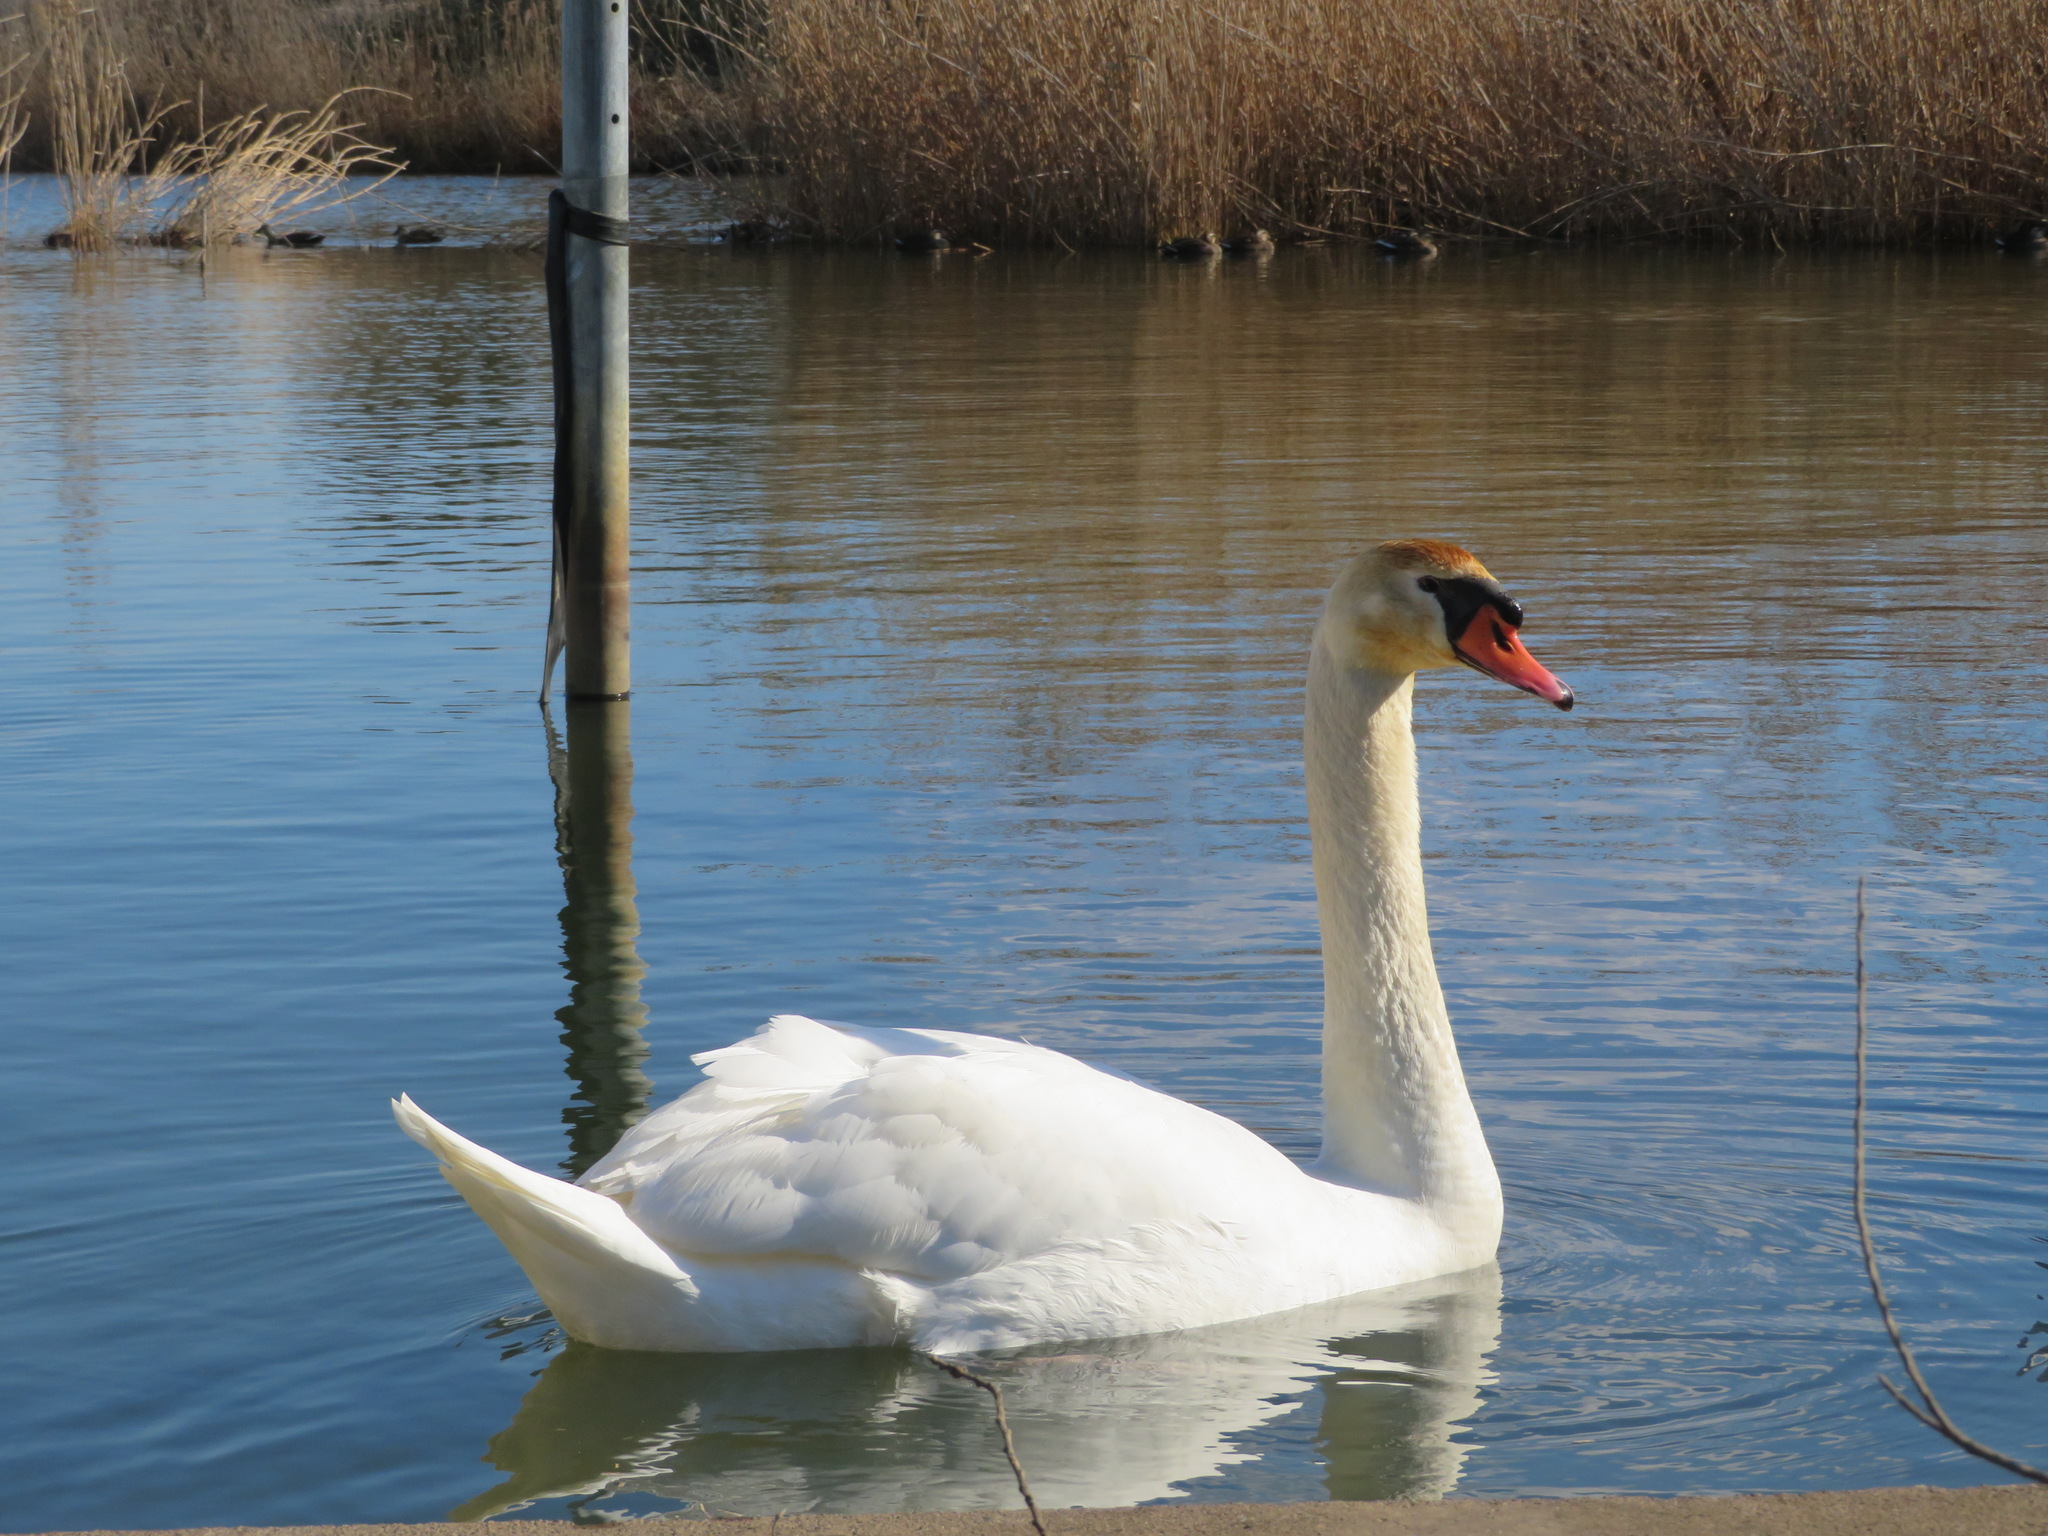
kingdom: Animalia
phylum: Chordata
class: Aves
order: Anseriformes
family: Anatidae
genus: Cygnus
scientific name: Cygnus olor
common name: Mute swan
